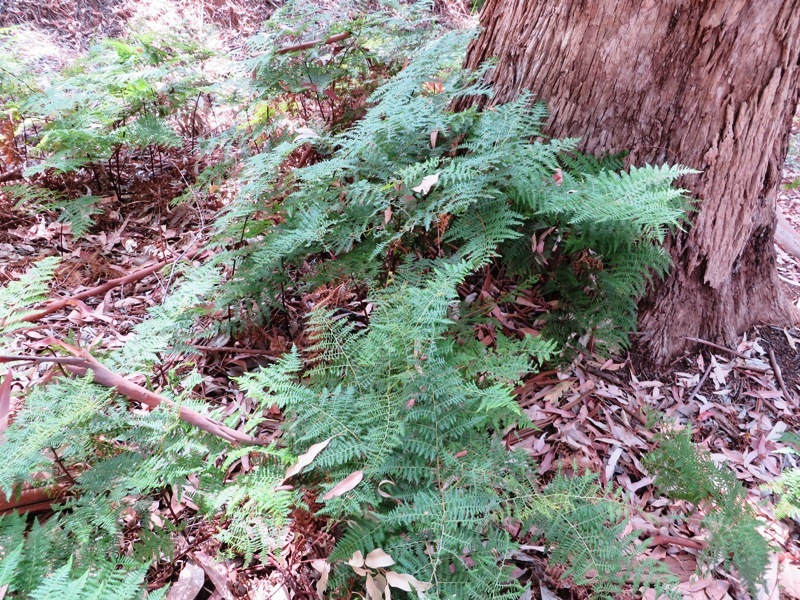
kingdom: Plantae
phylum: Tracheophyta
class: Polypodiopsida
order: Polypodiales
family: Dennstaedtiaceae
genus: Pteridium
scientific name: Pteridium aquilinum
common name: Bracken
